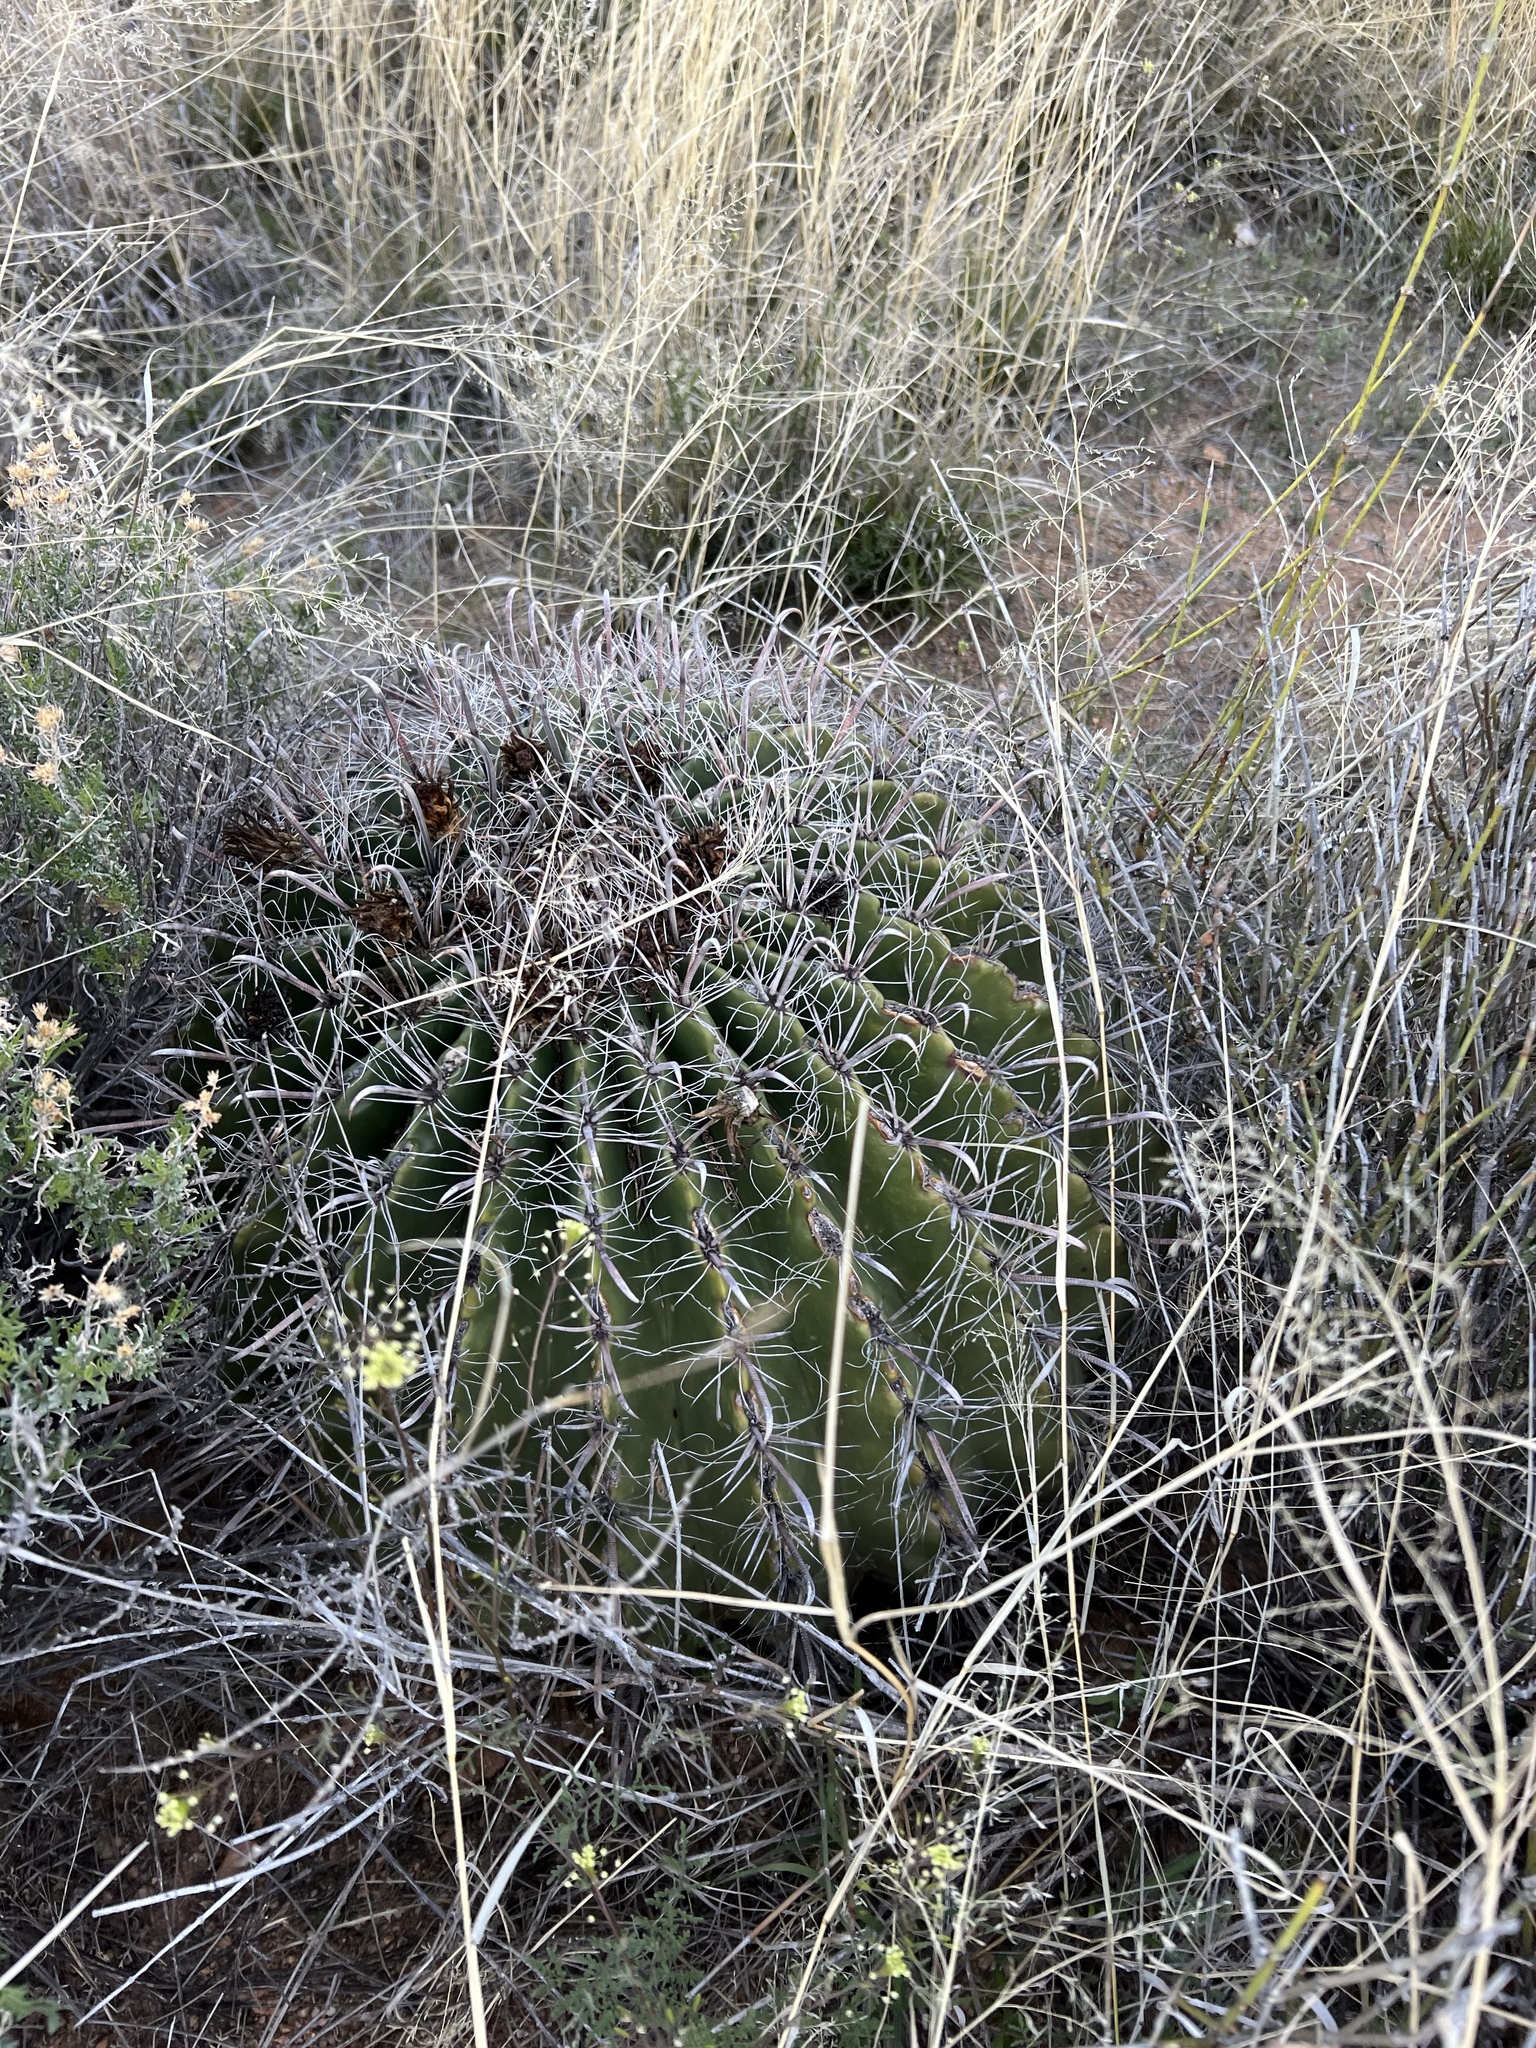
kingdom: Plantae
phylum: Tracheophyta
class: Magnoliopsida
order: Caryophyllales
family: Cactaceae
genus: Ferocactus
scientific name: Ferocactus wislizeni
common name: Candy barrel cactus
